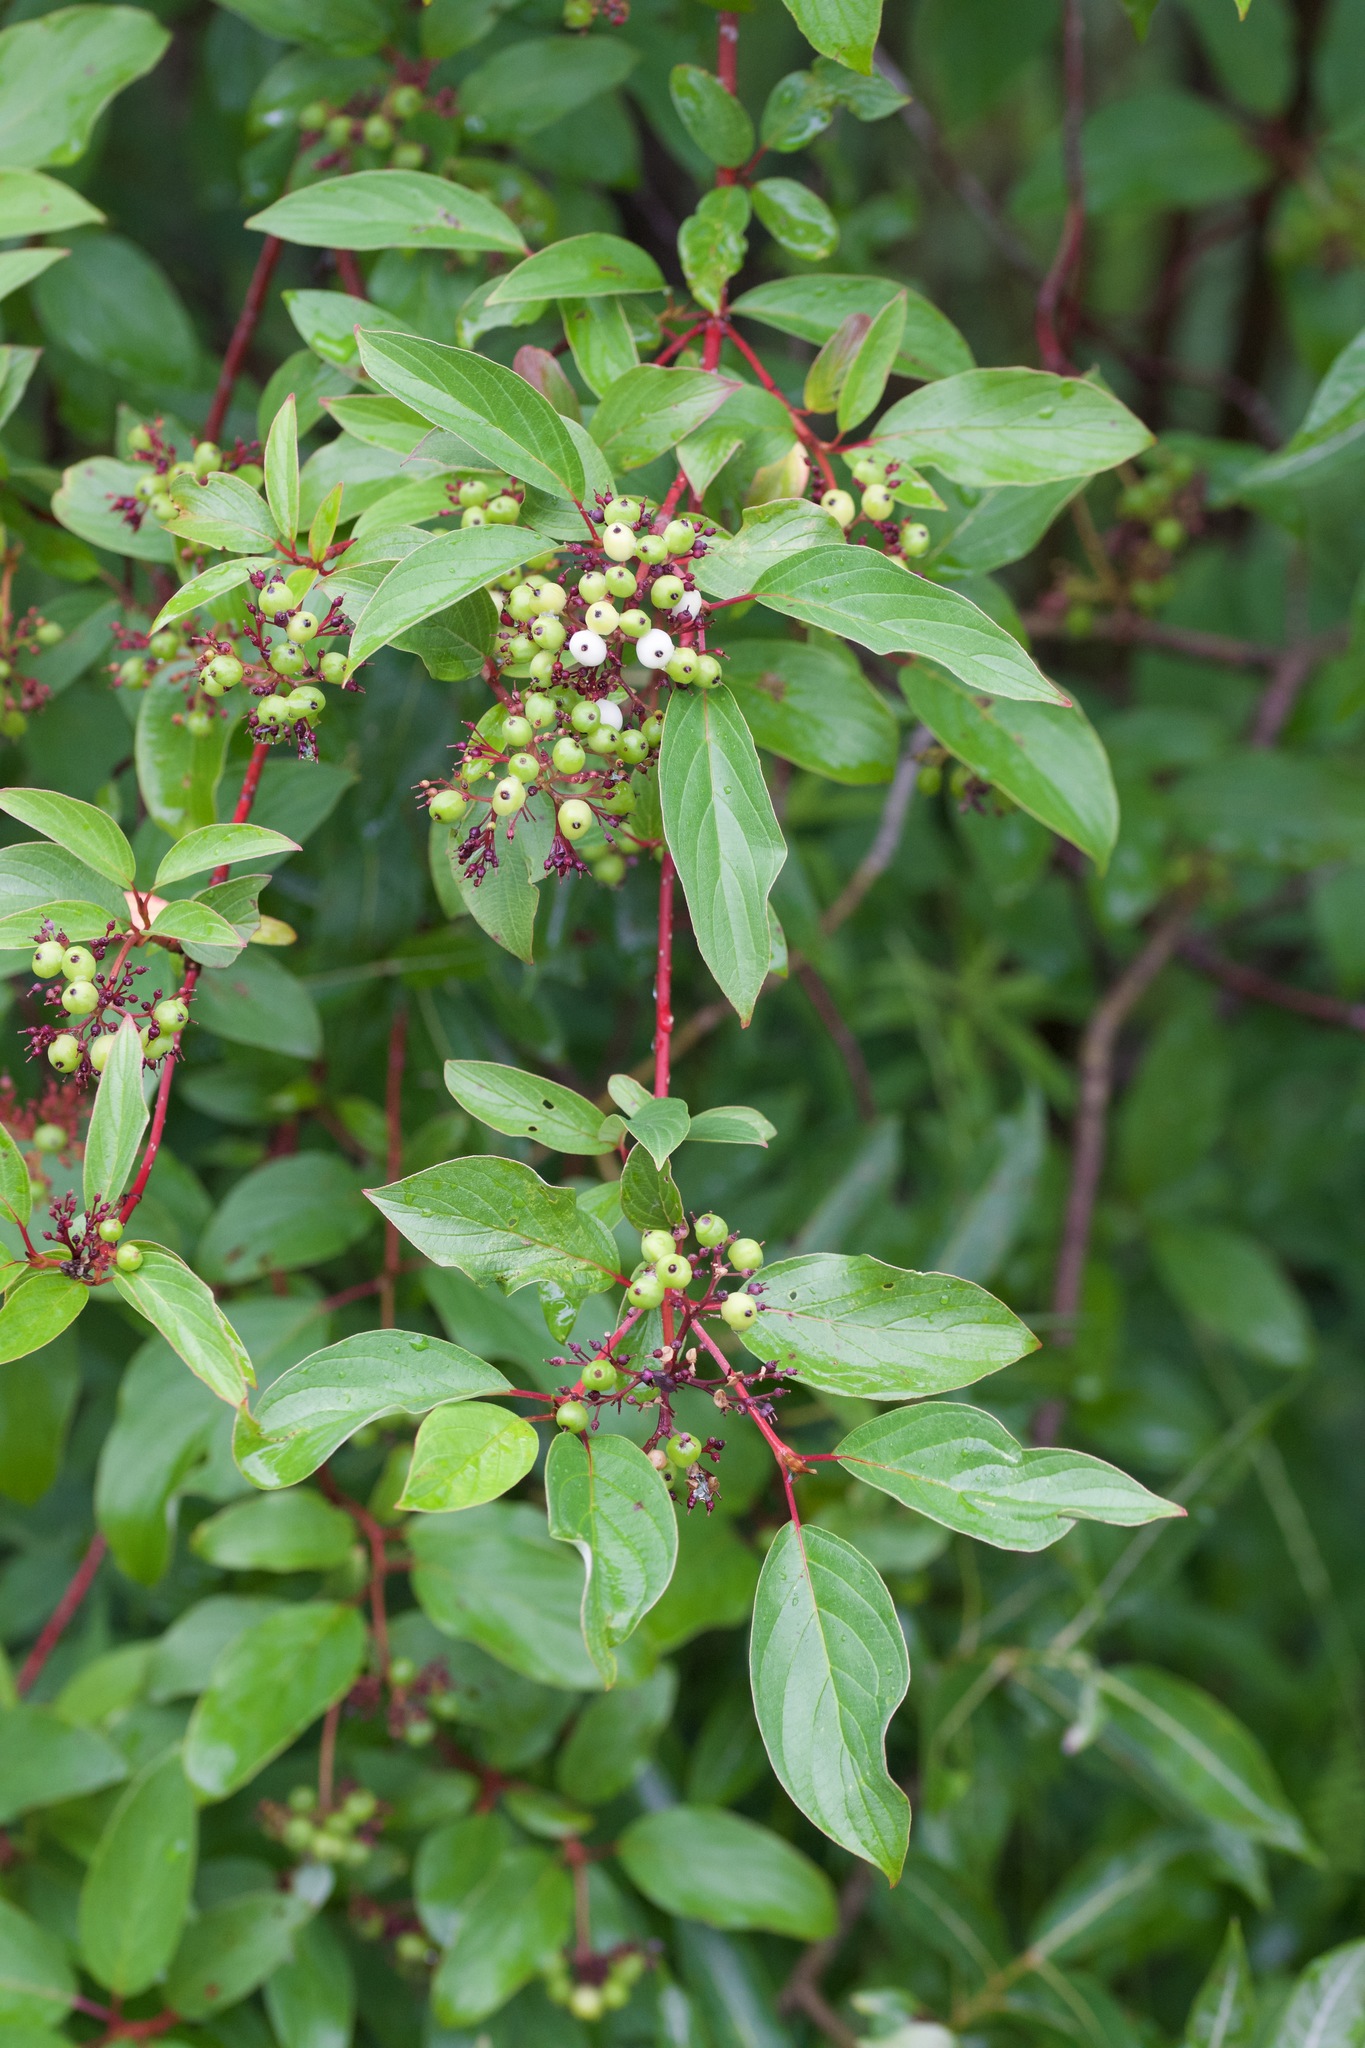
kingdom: Plantae
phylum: Tracheophyta
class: Magnoliopsida
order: Cornales
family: Cornaceae
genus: Cornus
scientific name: Cornus sericea
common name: Red-osier dogwood
